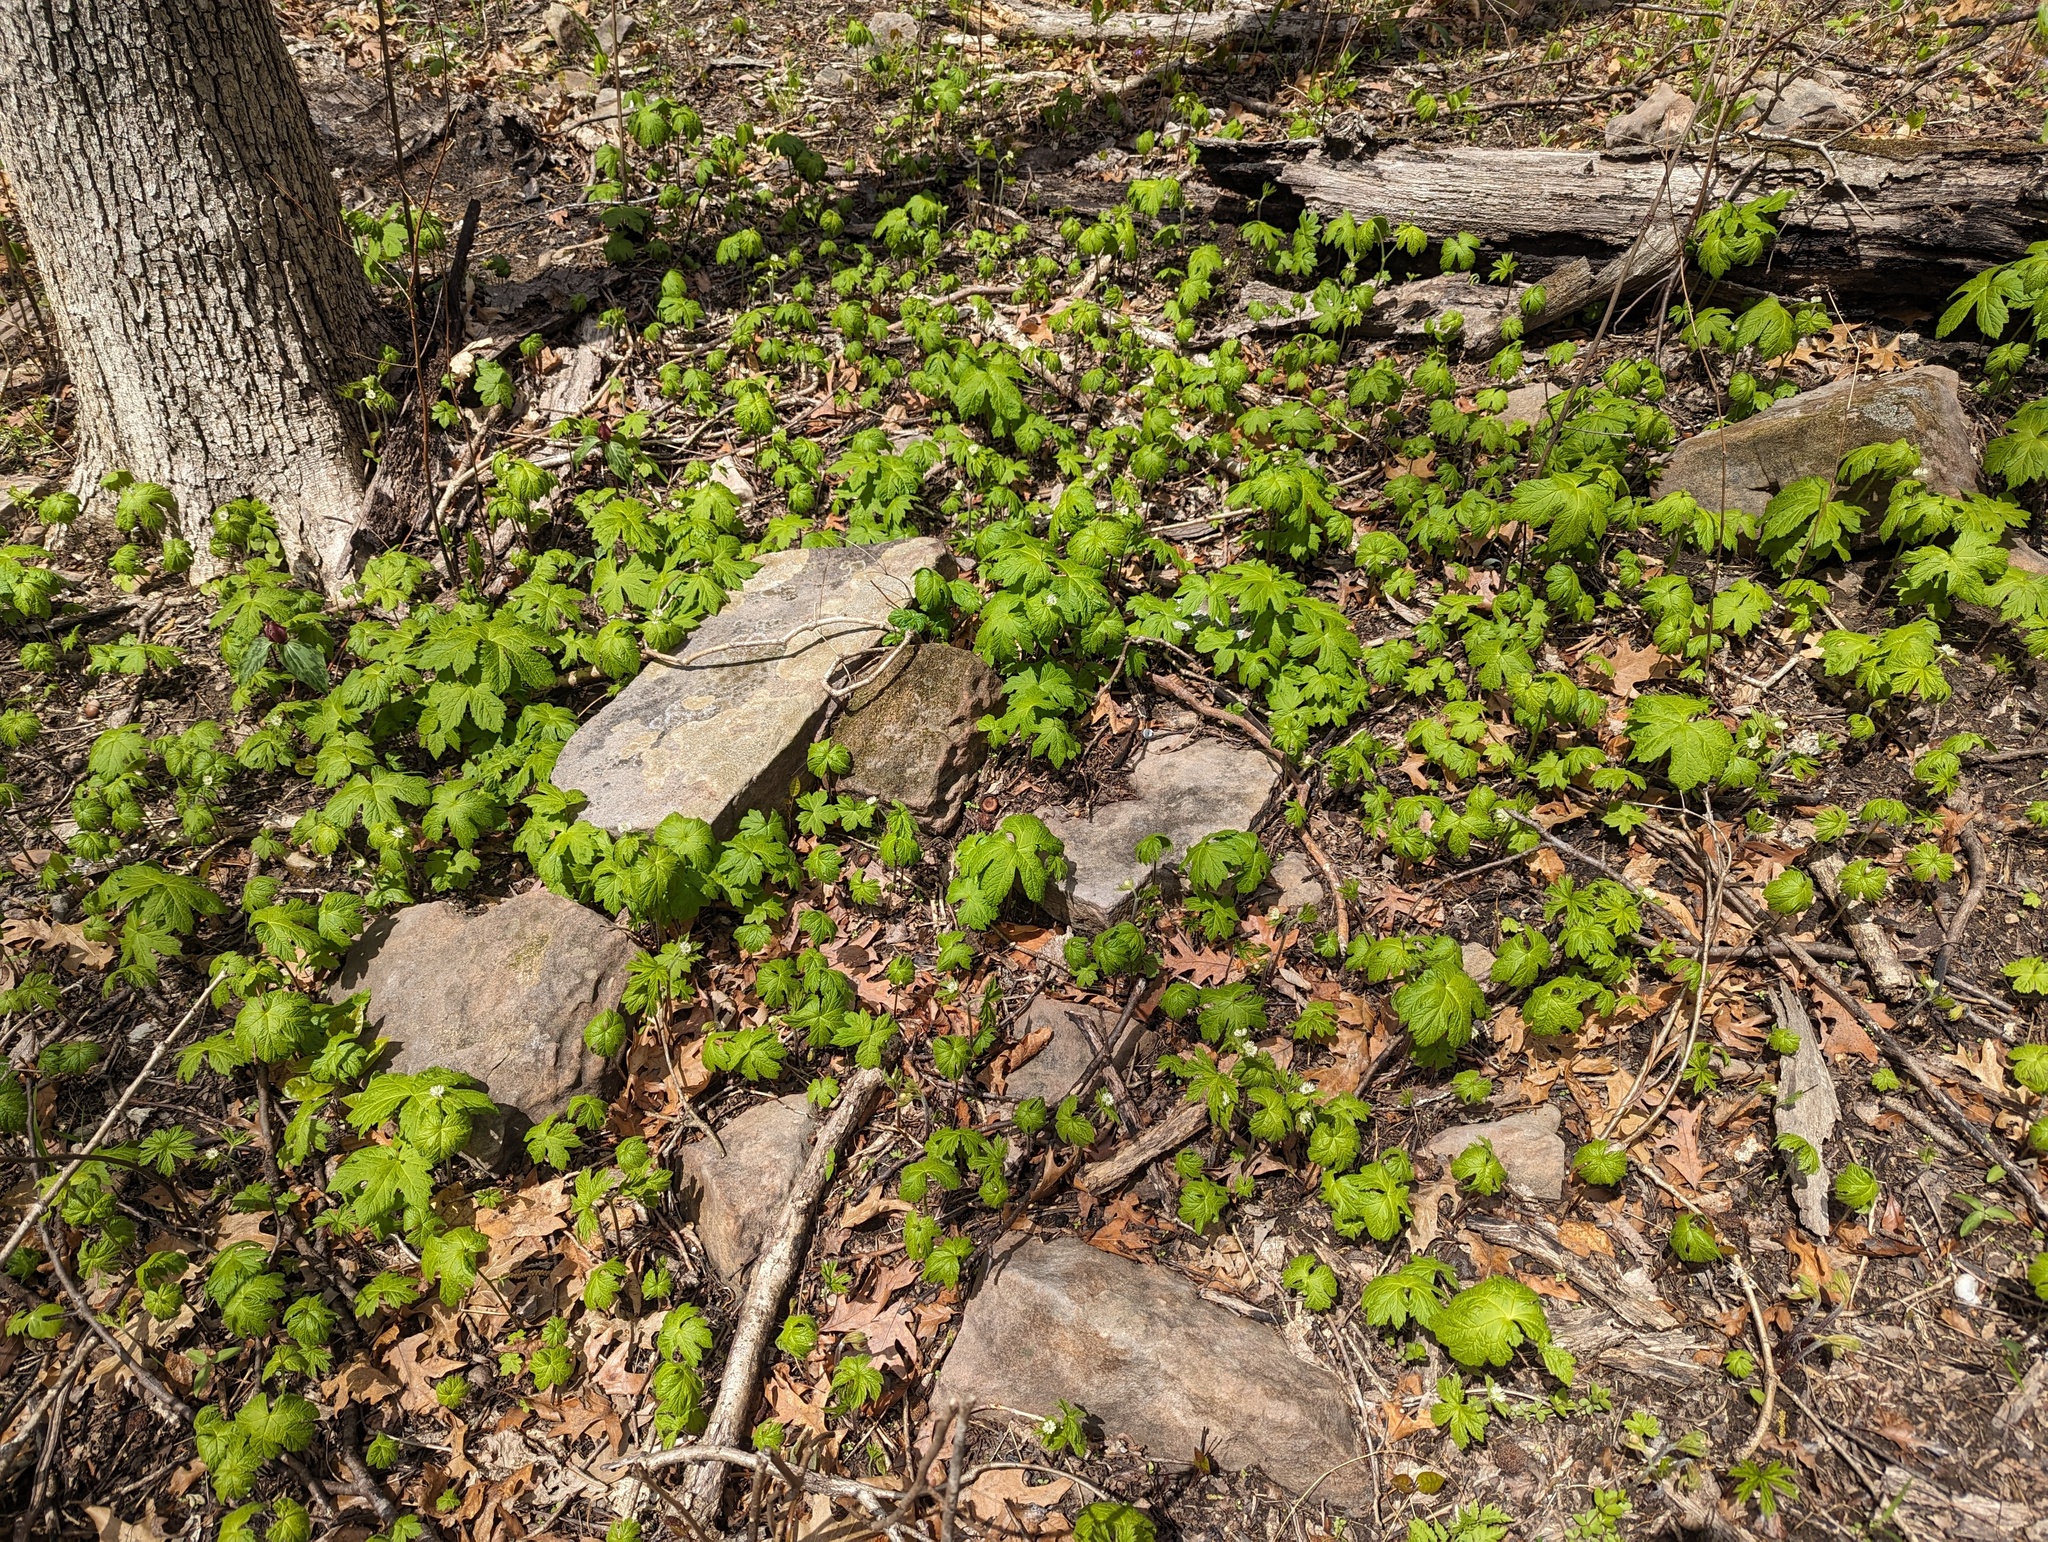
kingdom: Plantae
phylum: Tracheophyta
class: Magnoliopsida
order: Ranunculales
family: Ranunculaceae
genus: Hydrastis
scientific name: Hydrastis canadensis
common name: Goldenseal
